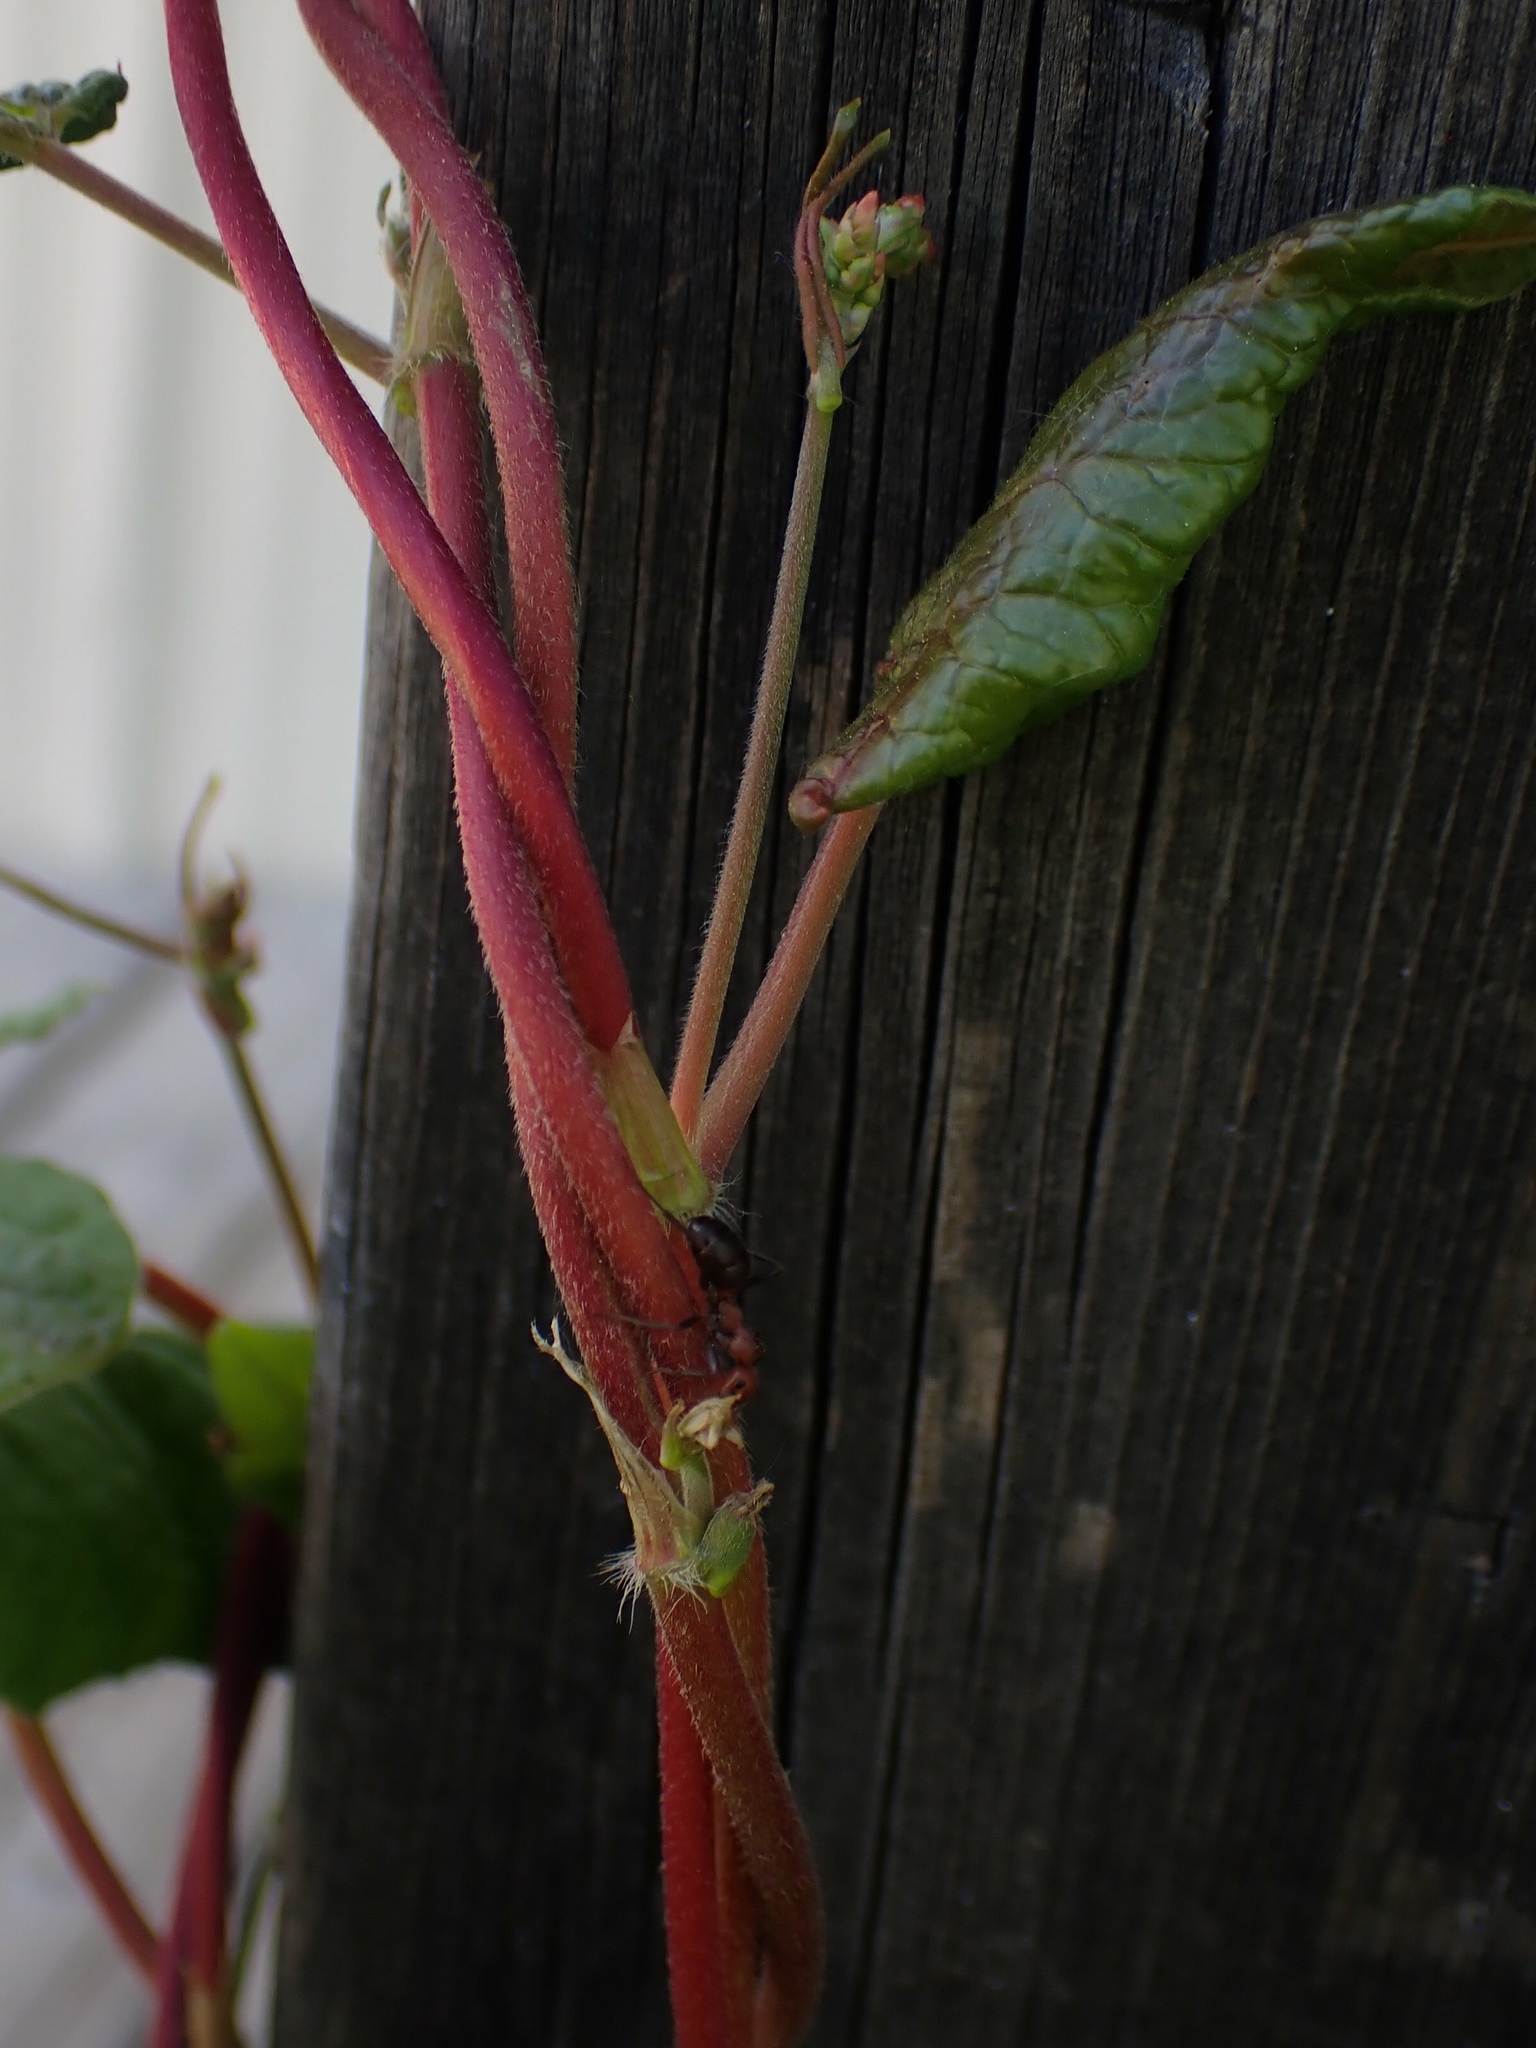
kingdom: Plantae
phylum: Tracheophyta
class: Magnoliopsida
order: Caryophyllales
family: Polygonaceae
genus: Parogonum
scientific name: Parogonum ciliinode
